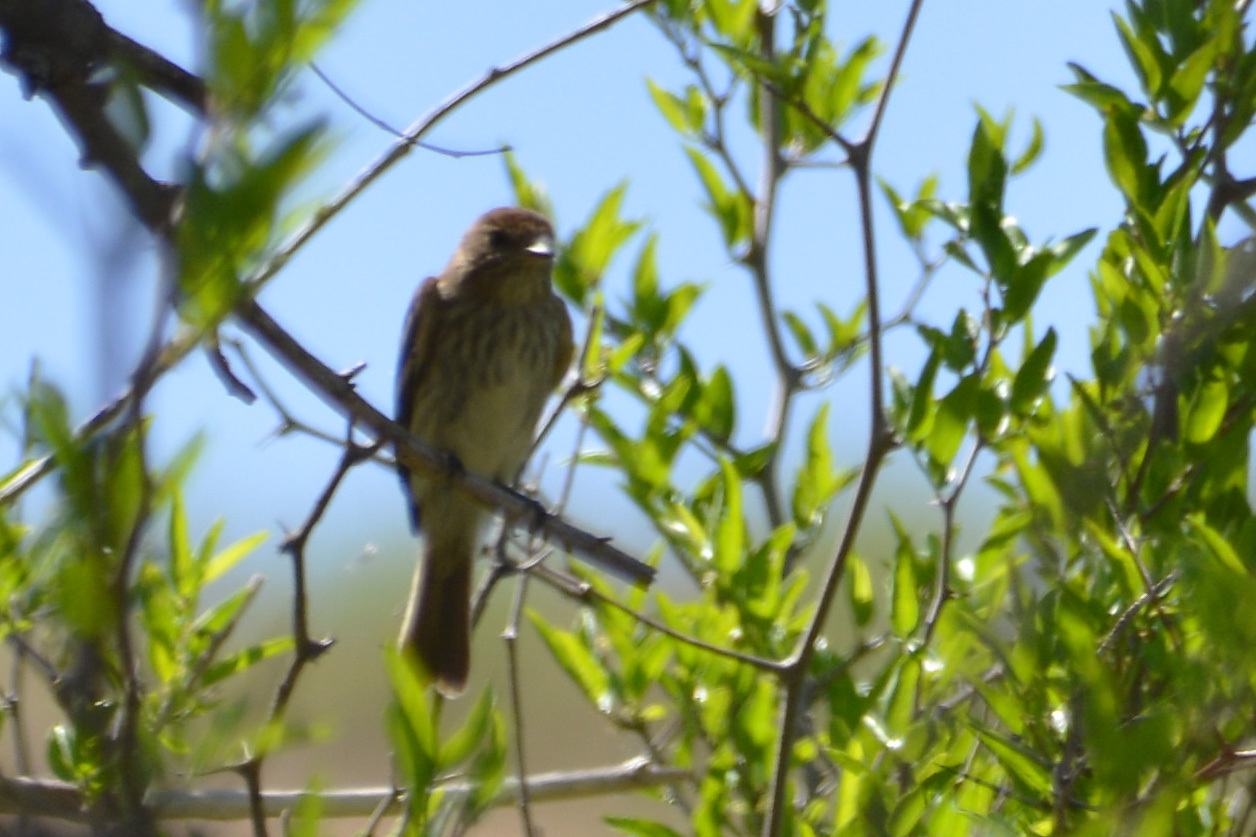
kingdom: Animalia
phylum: Chordata
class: Aves
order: Passeriformes
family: Tyrannidae
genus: Myiophobus
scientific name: Myiophobus fasciatus
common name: Bran-colored flycatcher
